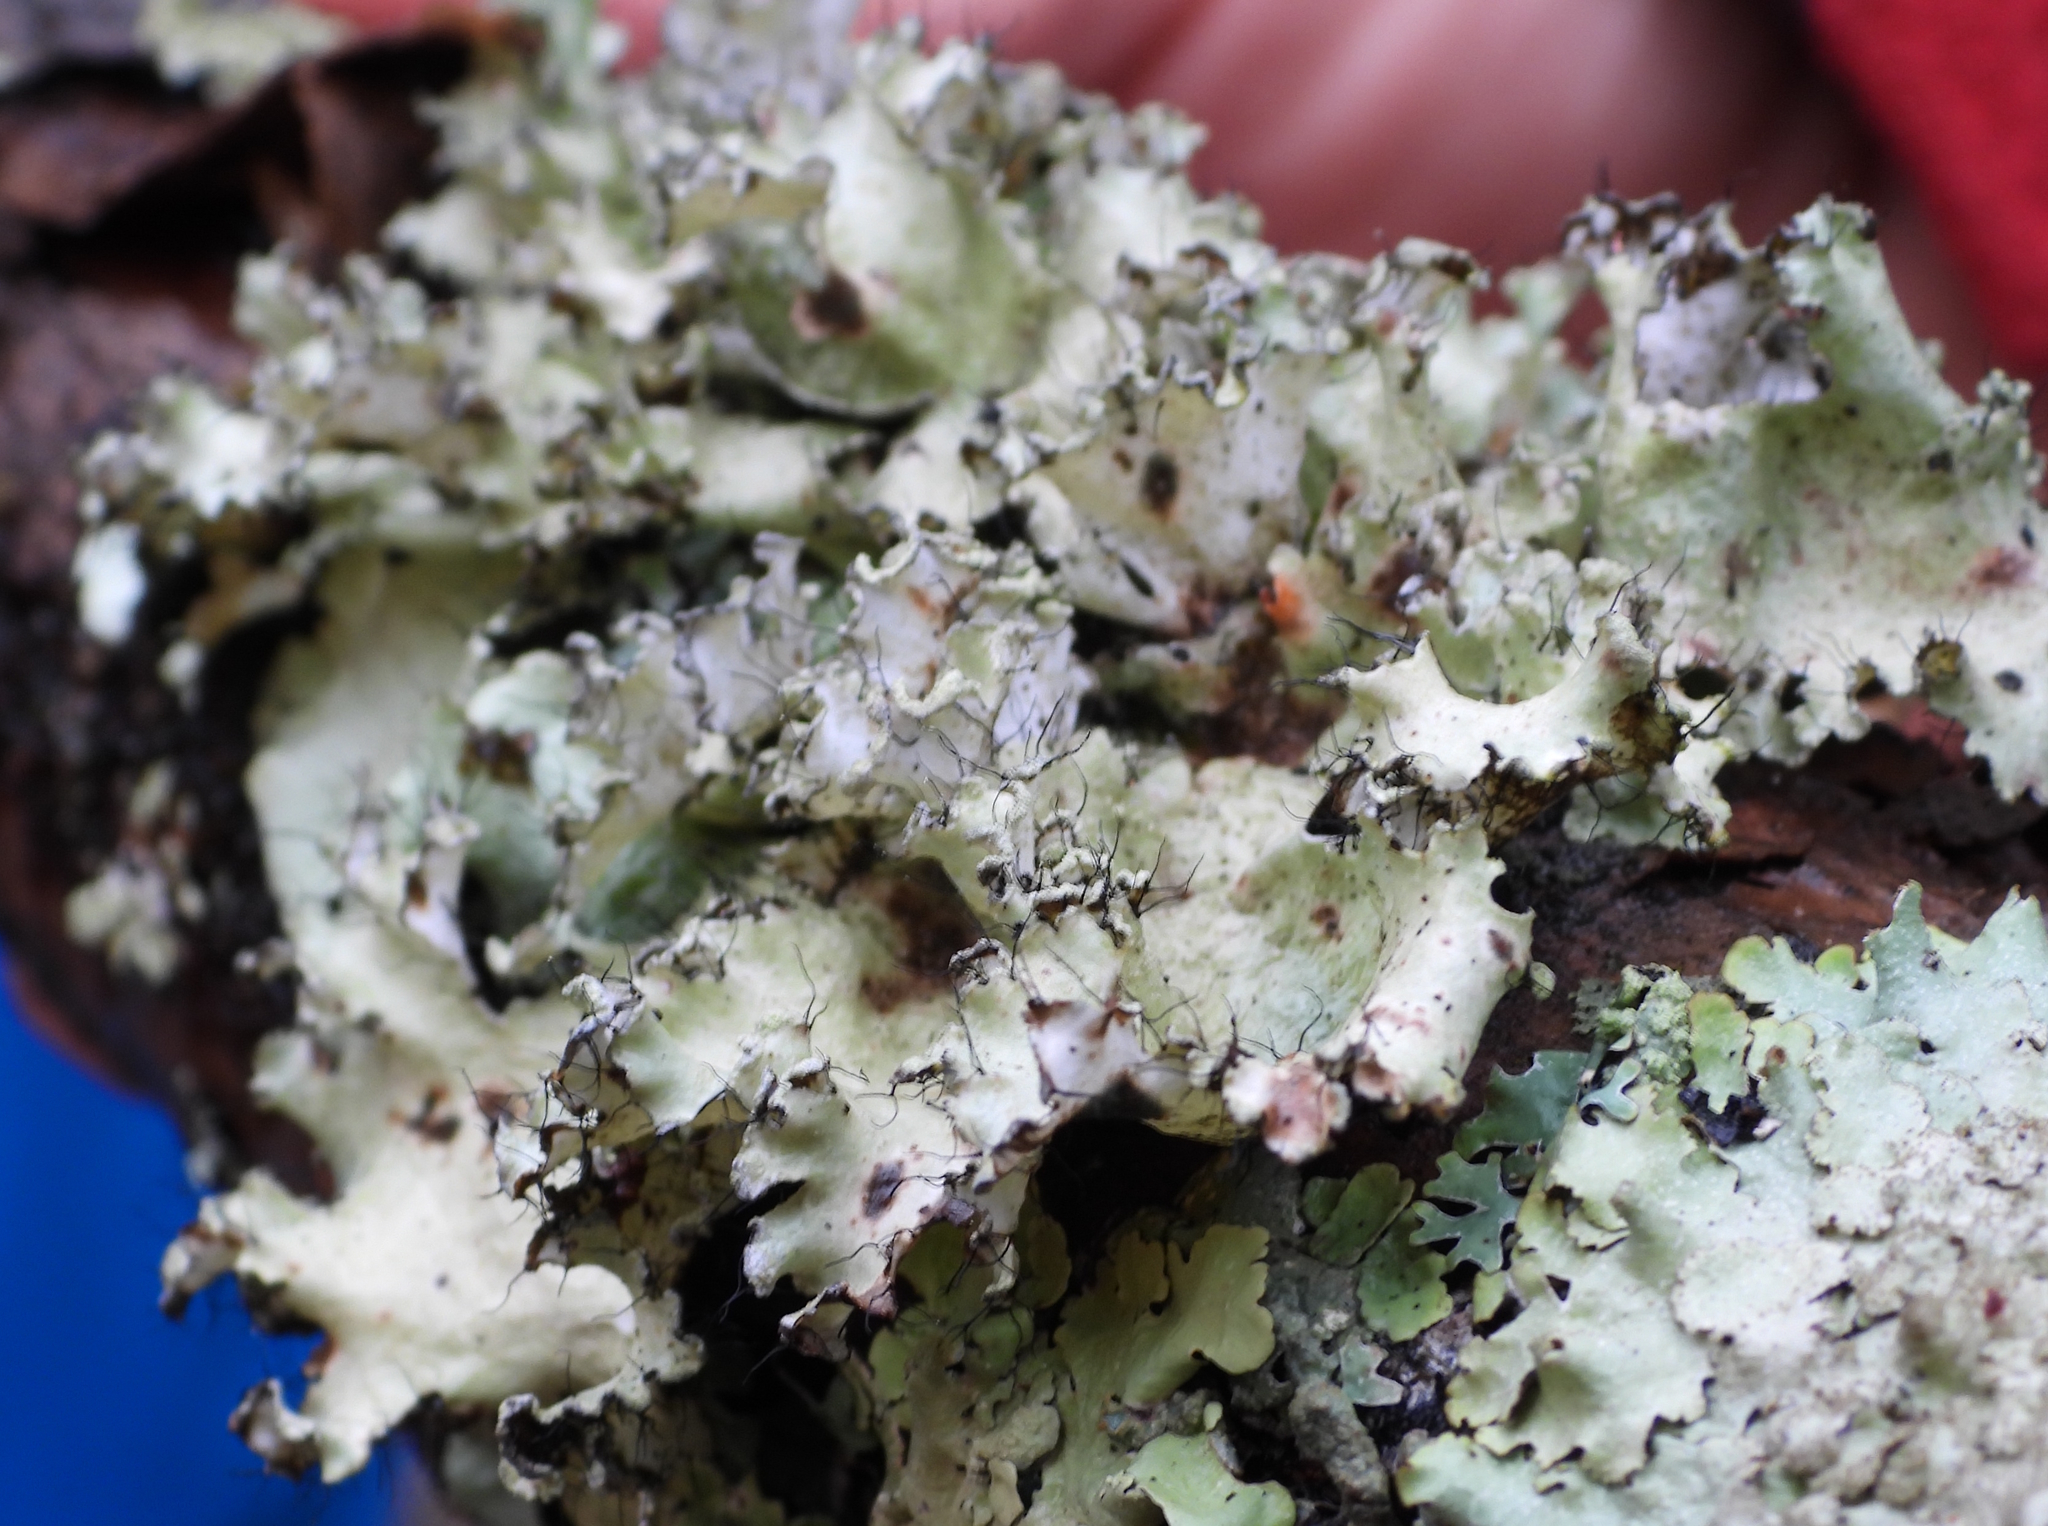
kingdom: Fungi
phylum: Ascomycota
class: Lecanoromycetes
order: Lecanorales
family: Parmeliaceae
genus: Parmotrema
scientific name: Parmotrema hypotropum
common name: Powdered ruffle lichen
